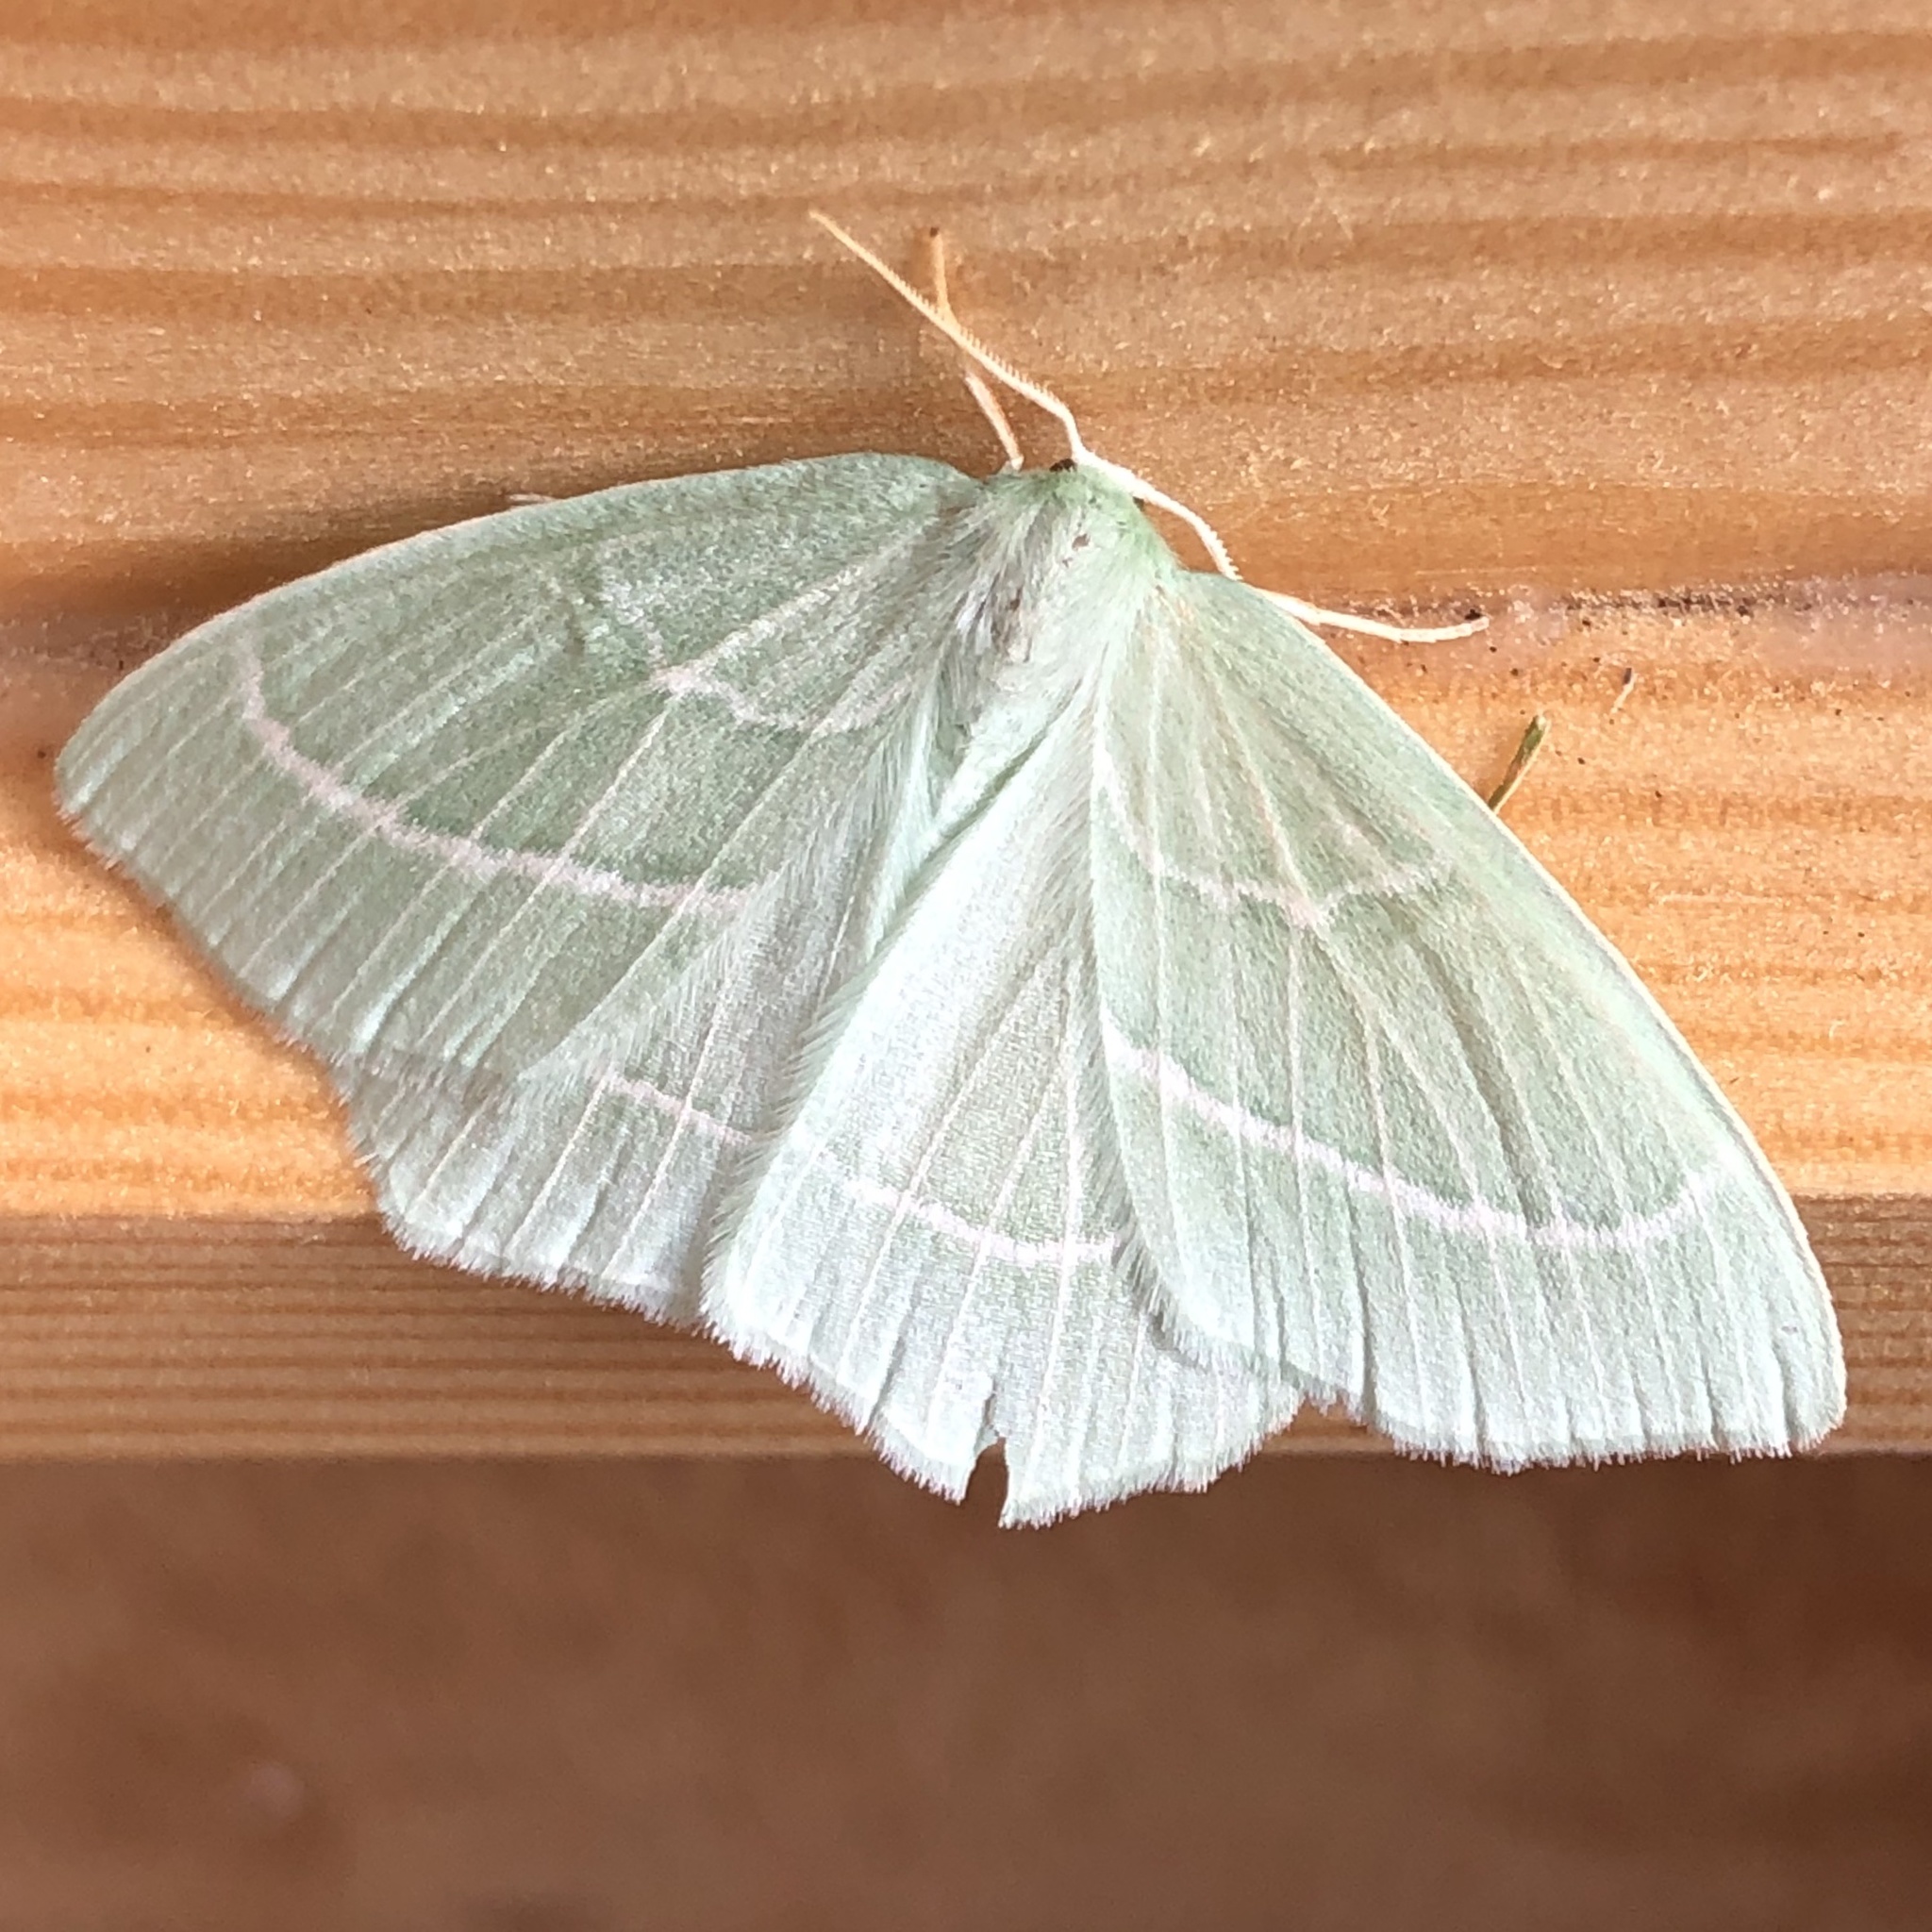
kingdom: Animalia
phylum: Arthropoda
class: Insecta
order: Lepidoptera
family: Geometridae
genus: Hemistola
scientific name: Hemistola chrysoprasaria
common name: Small emerald
